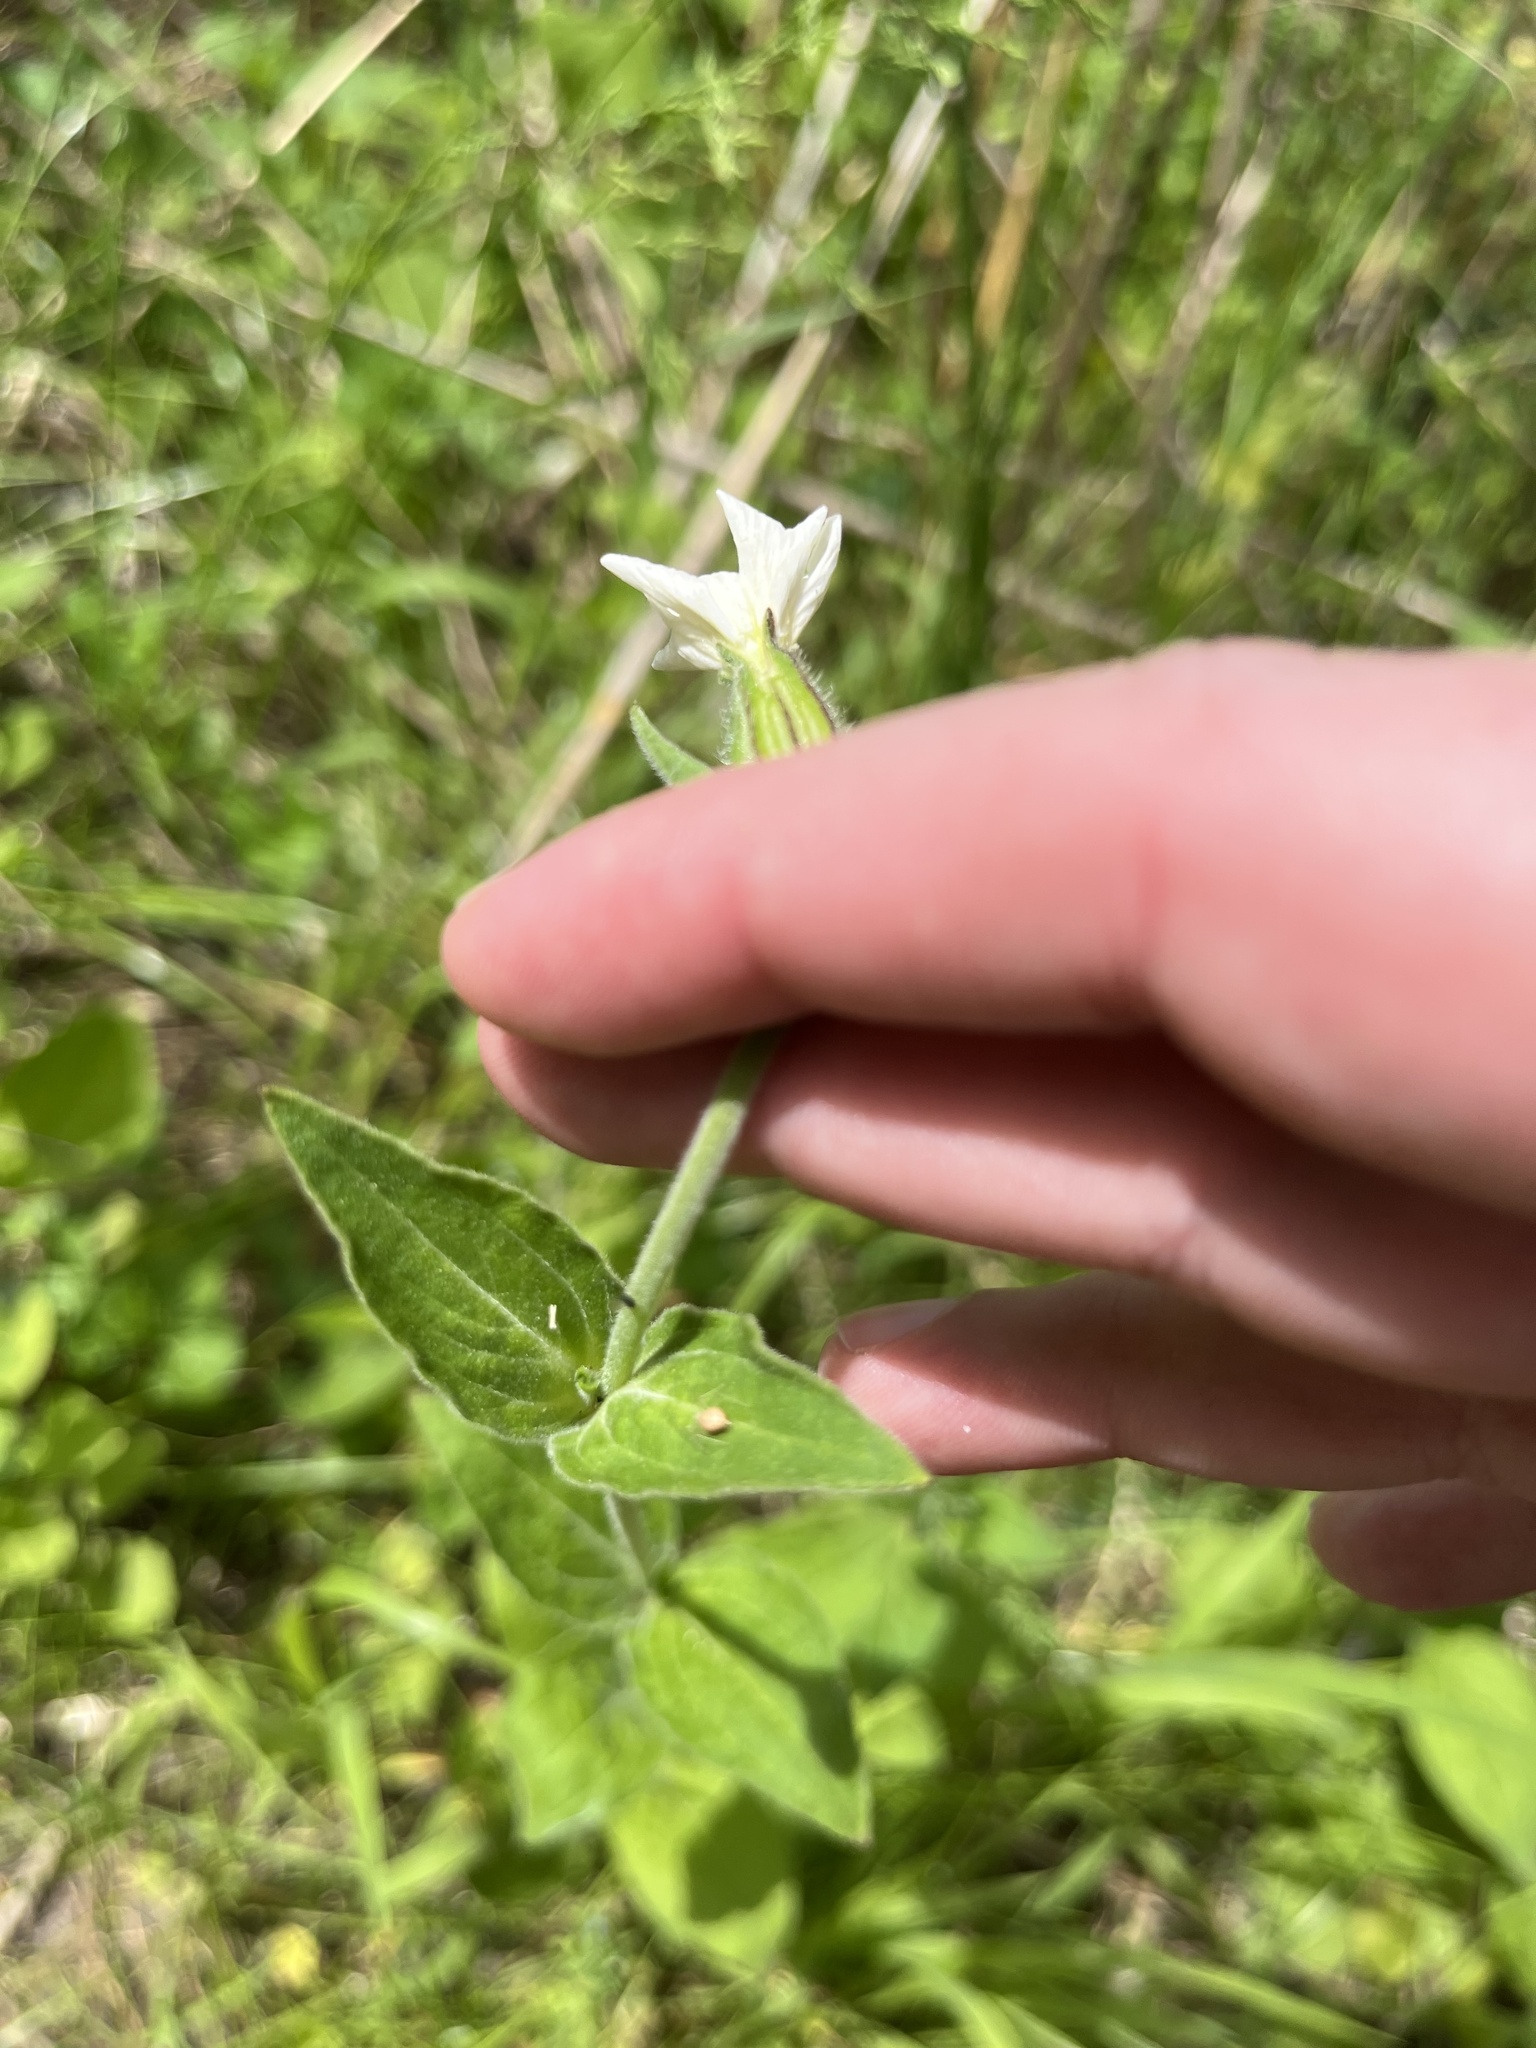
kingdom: Plantae
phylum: Tracheophyta
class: Magnoliopsida
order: Caryophyllales
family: Caryophyllaceae
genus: Silene
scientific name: Silene latifolia
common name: White campion
